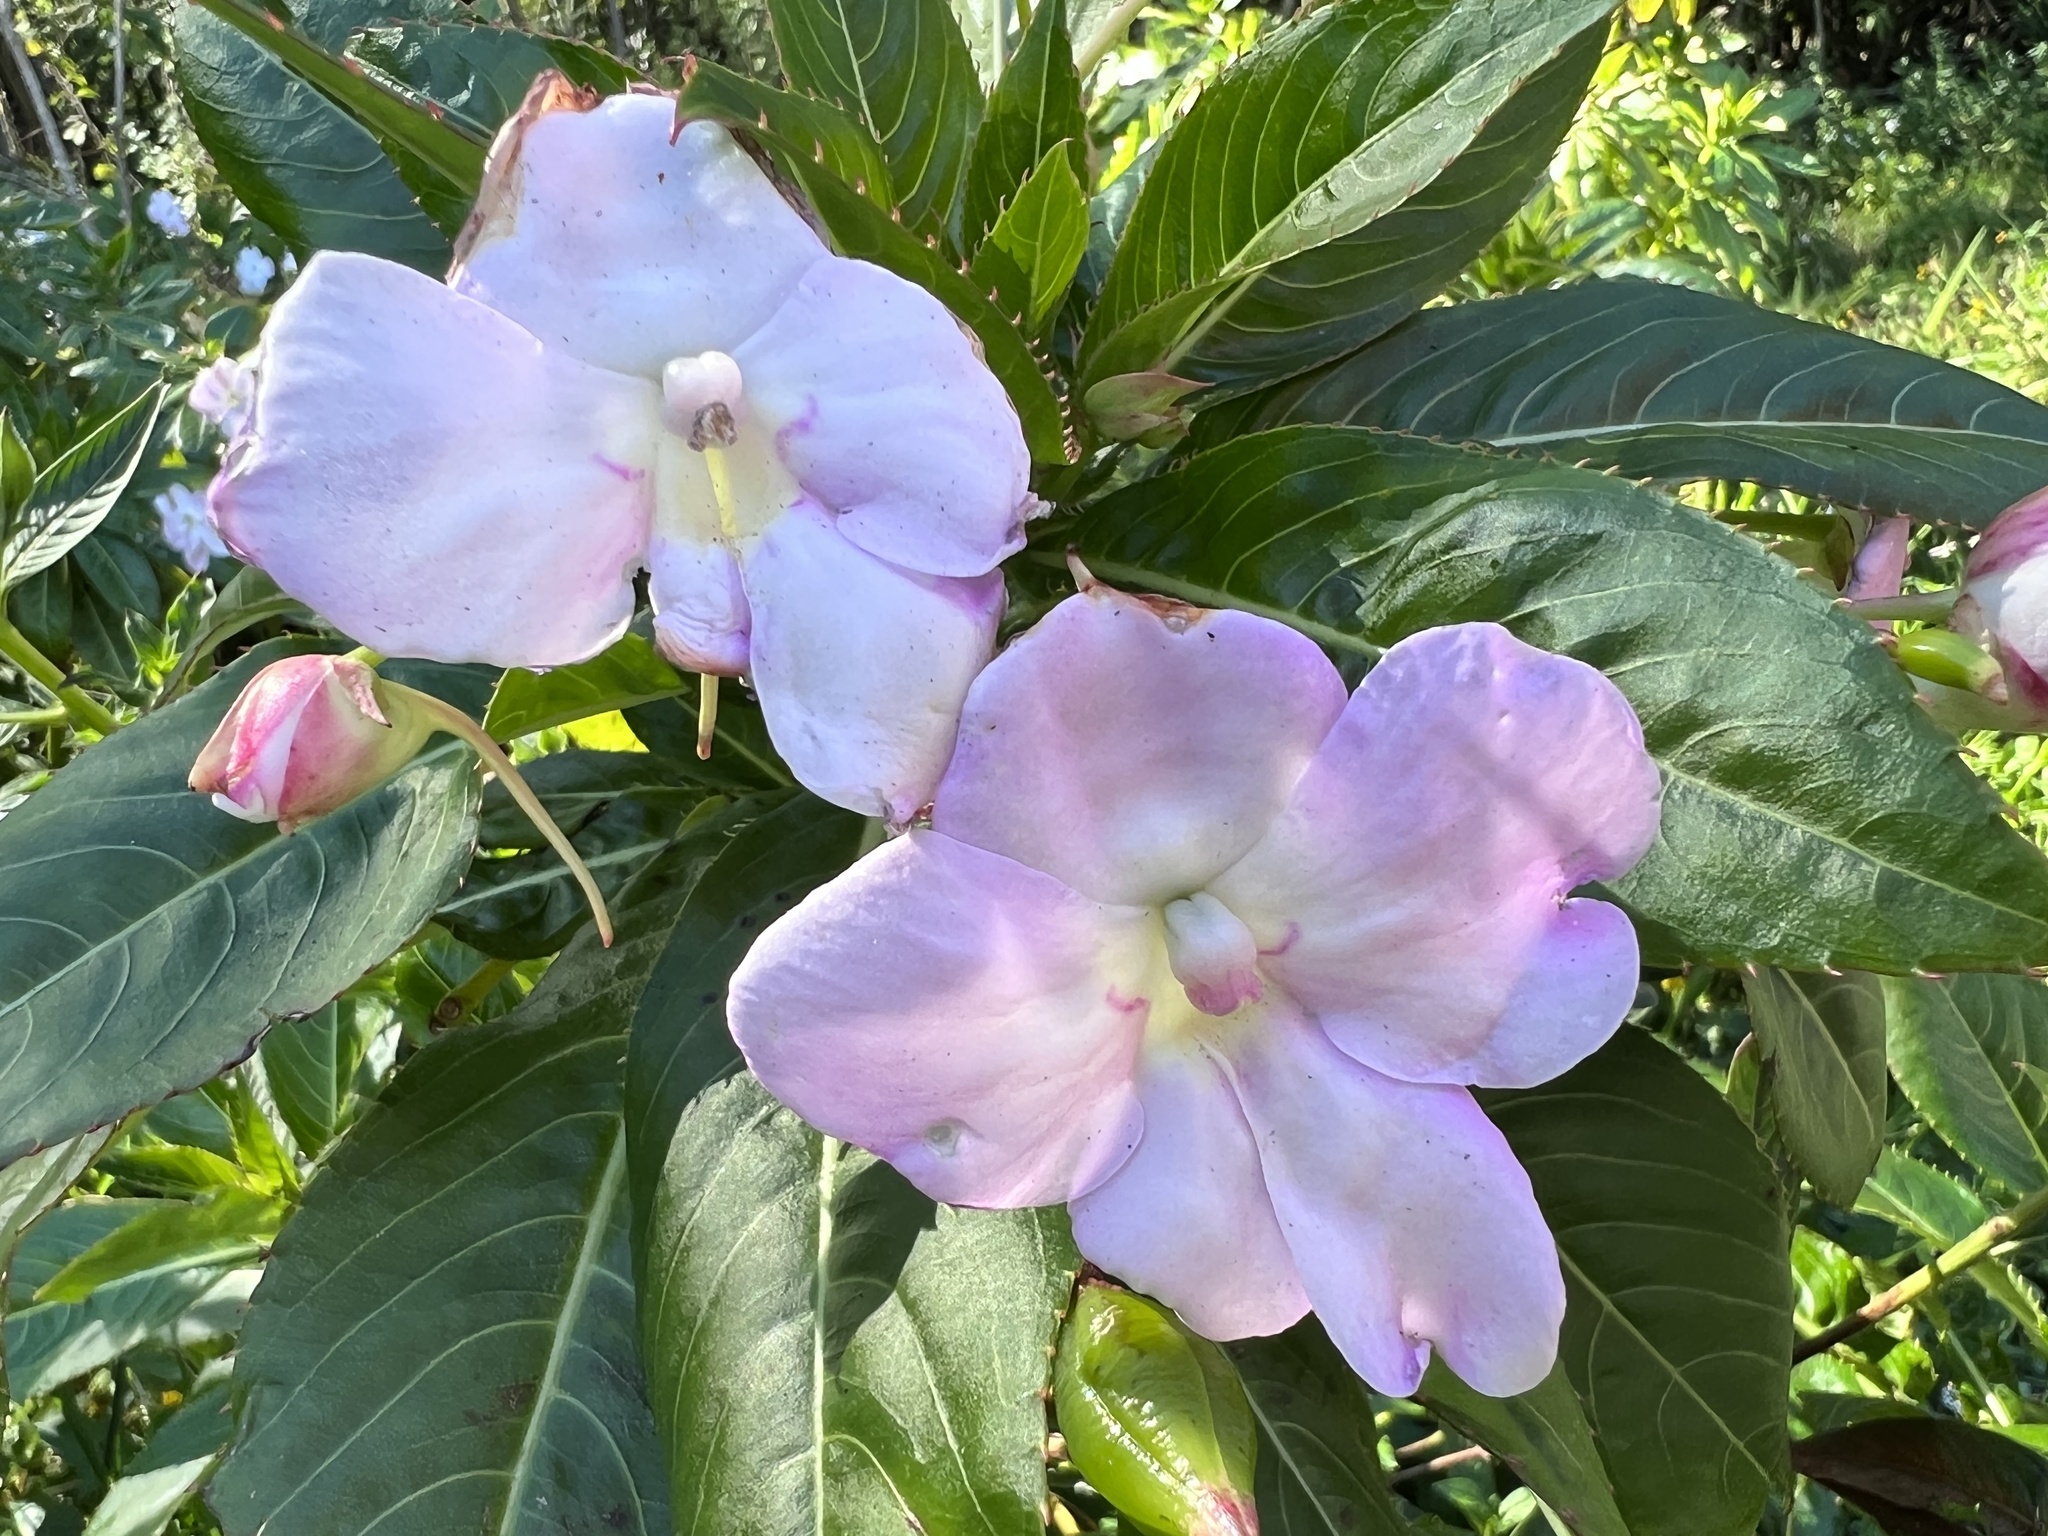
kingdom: Plantae
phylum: Tracheophyta
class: Magnoliopsida
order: Ericales
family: Balsaminaceae
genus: Impatiens
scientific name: Impatiens sodenii
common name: Oliver's touch-me-not
